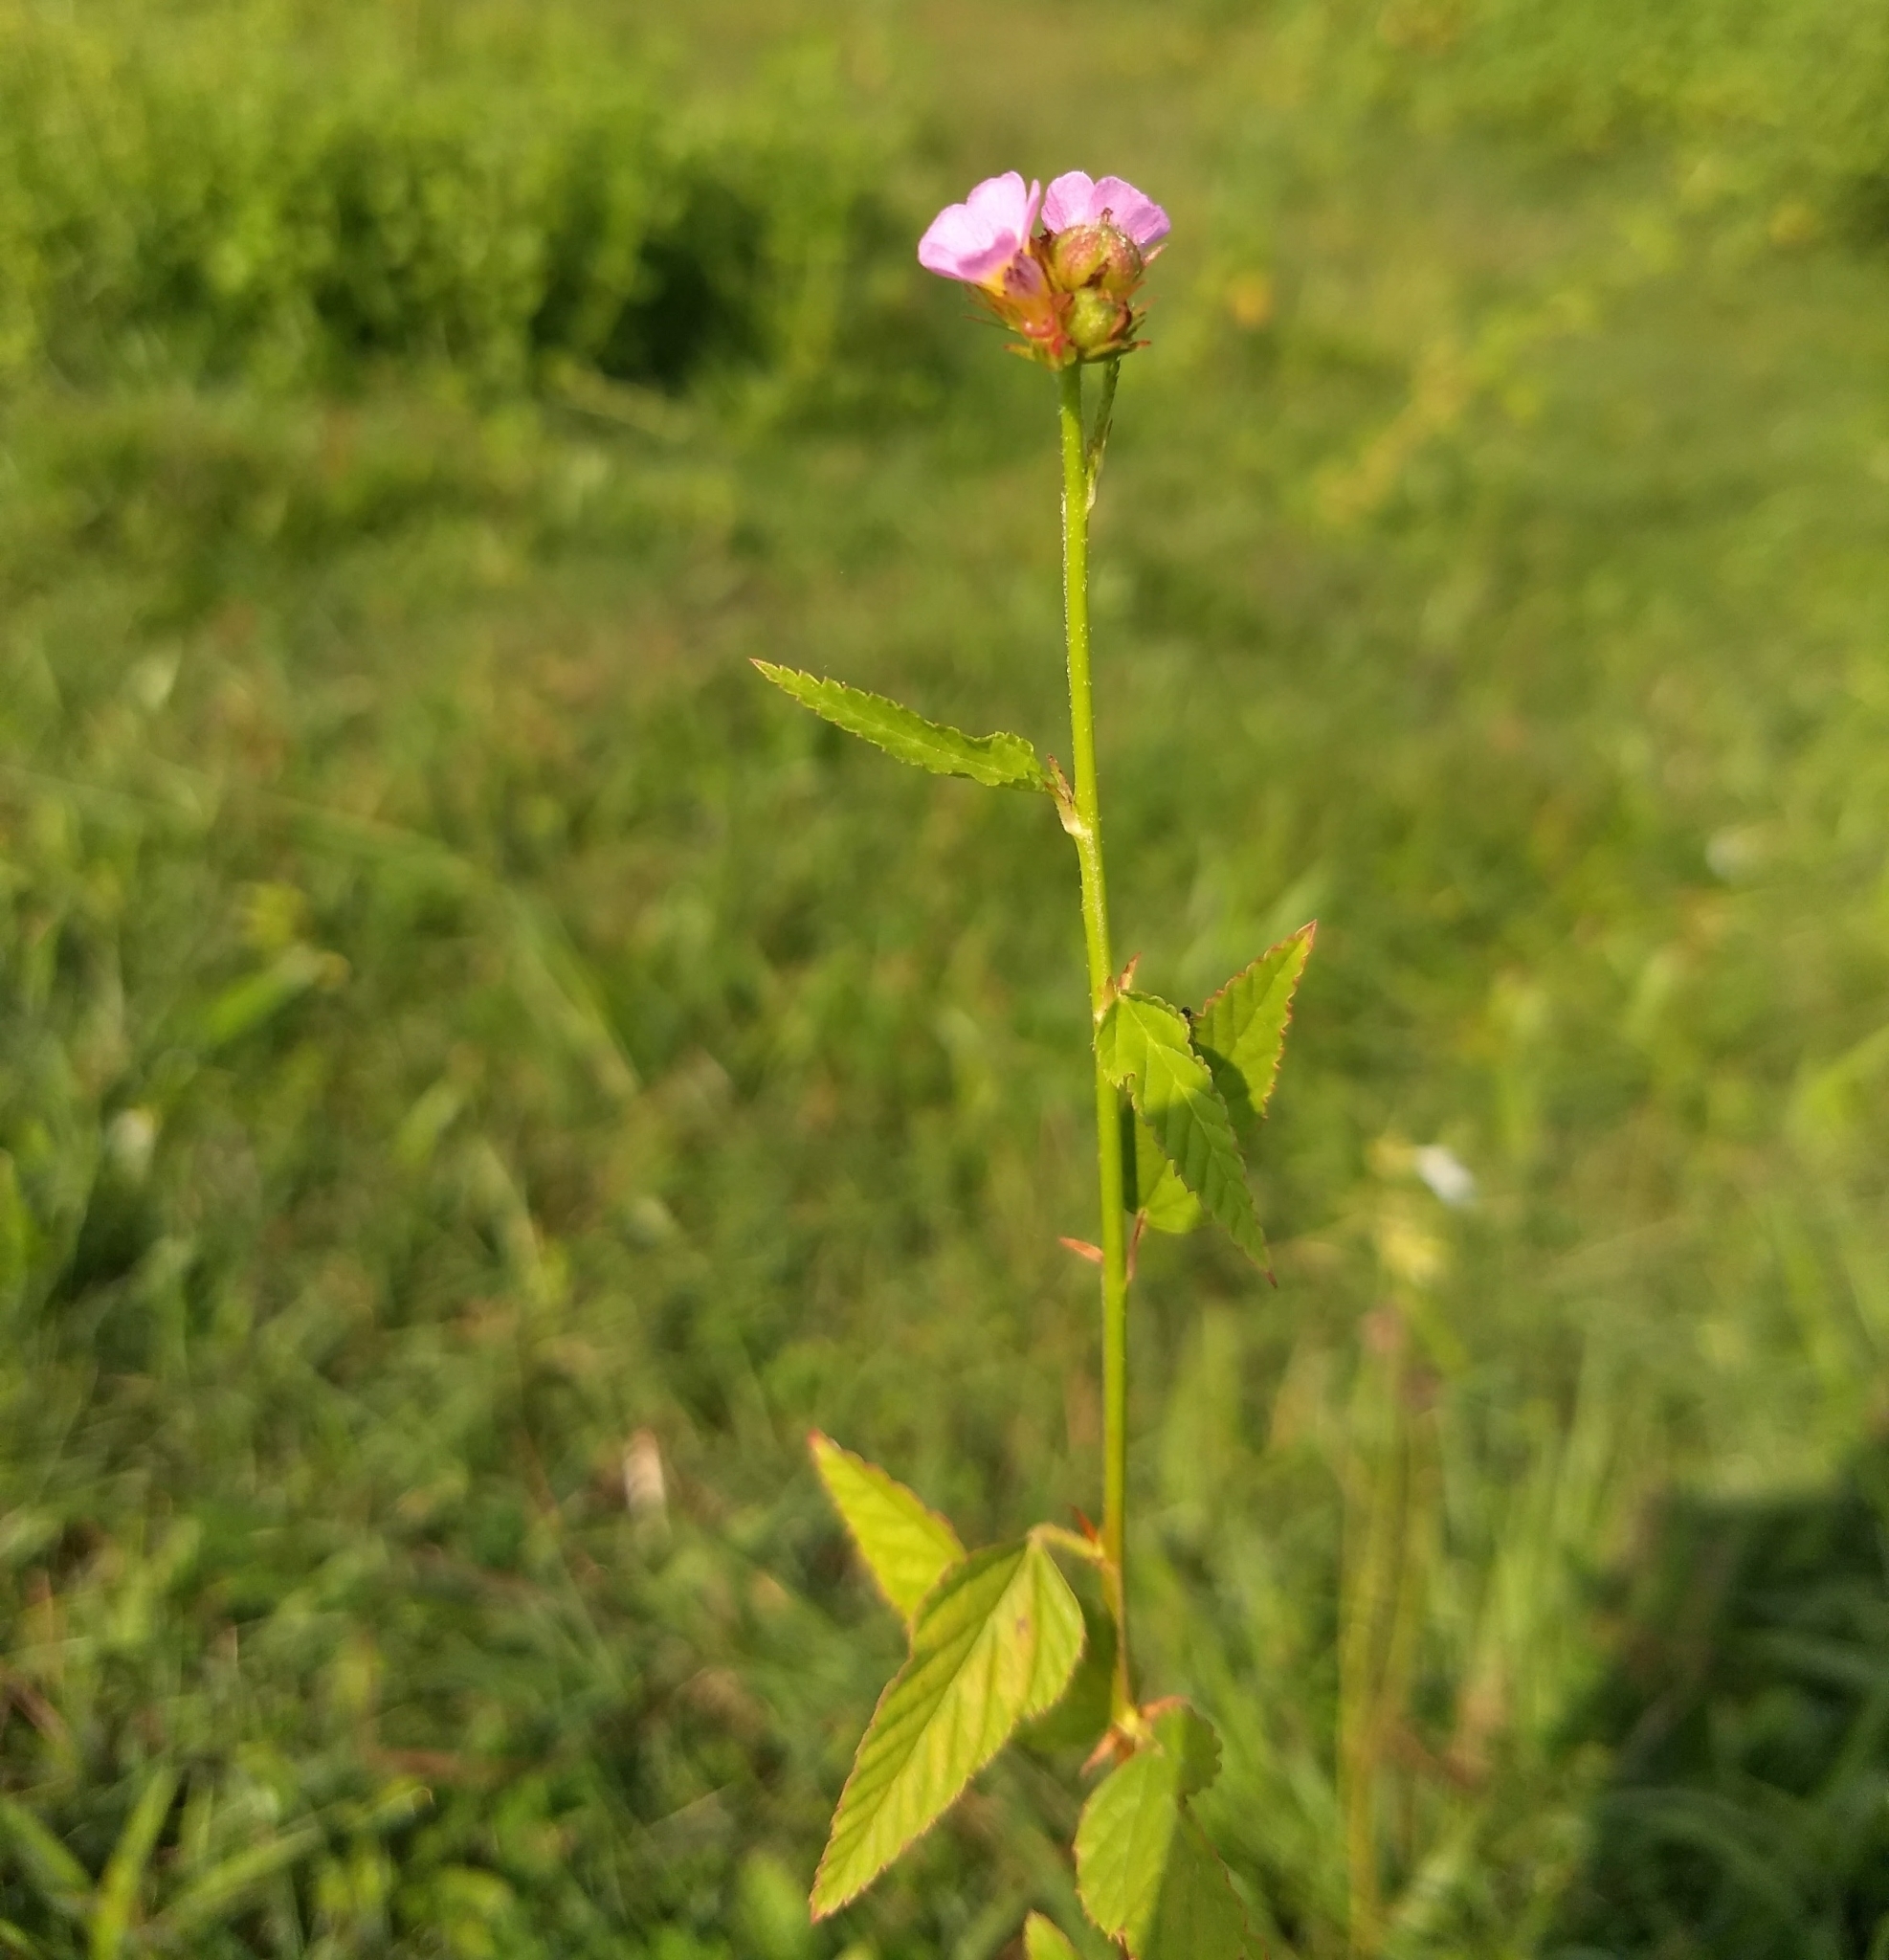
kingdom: Plantae
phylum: Tracheophyta
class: Magnoliopsida
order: Malvales
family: Malvaceae
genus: Melochia
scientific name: Melochia corchorifolia
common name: Chocolateweed
